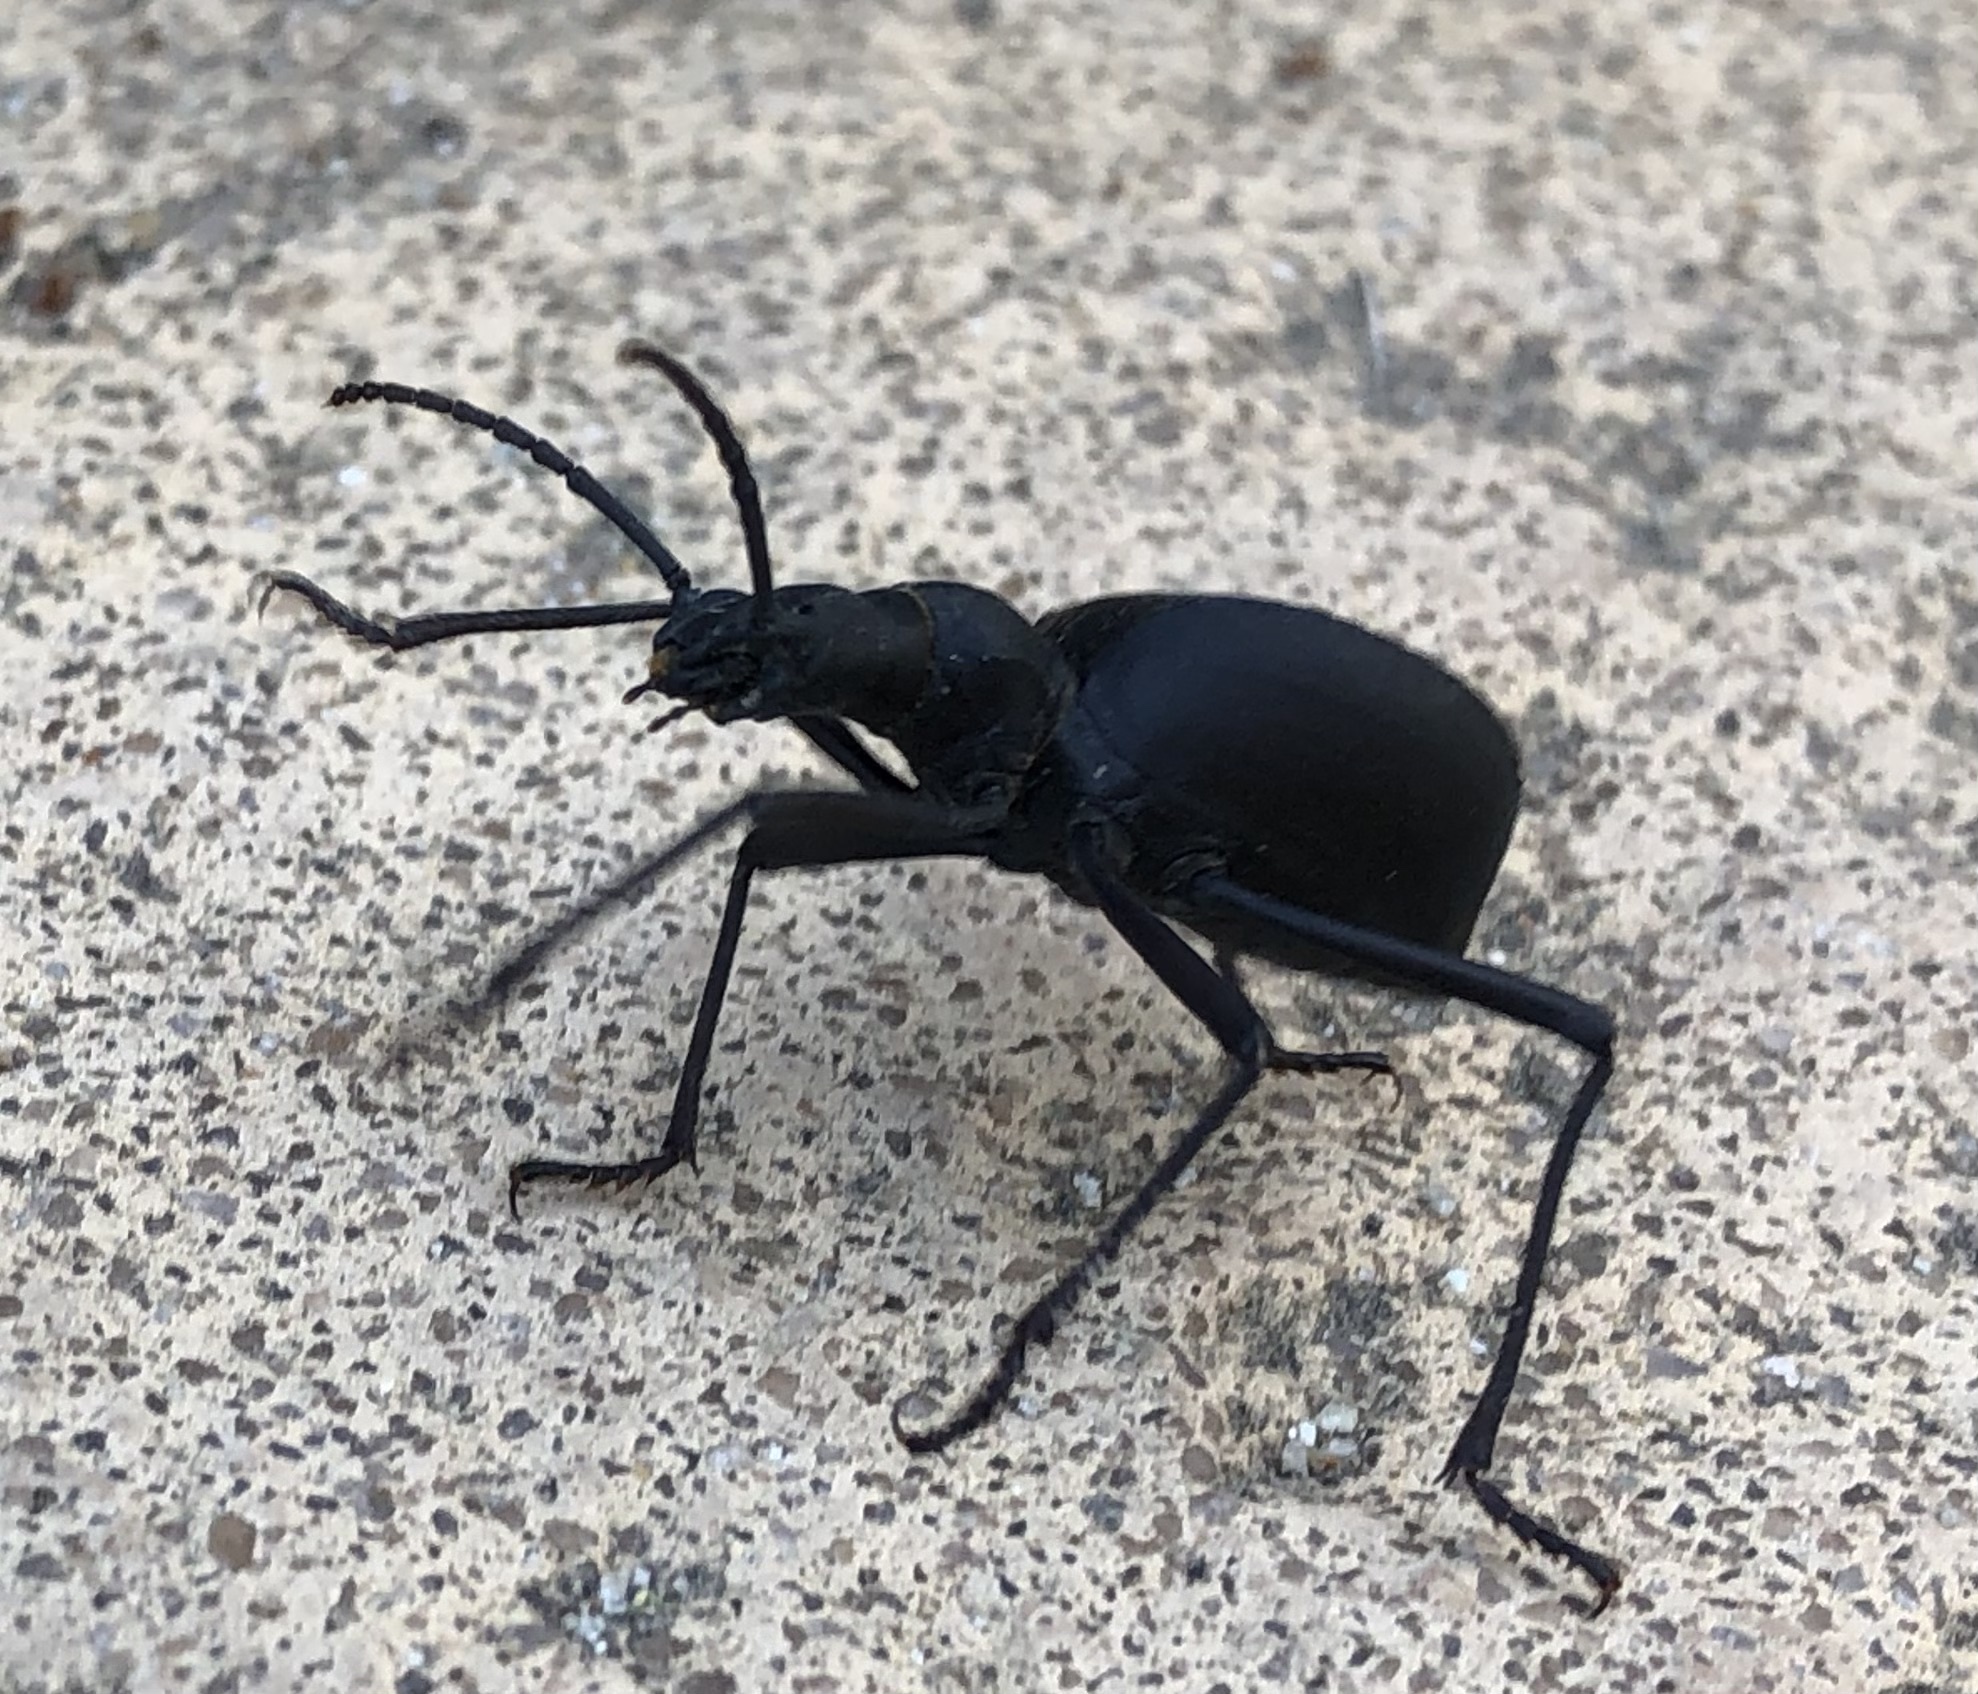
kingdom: Animalia
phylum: Arthropoda
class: Insecta
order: Coleoptera
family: Tenebrionidae
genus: Leptoderis
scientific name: Leptoderis solieri
